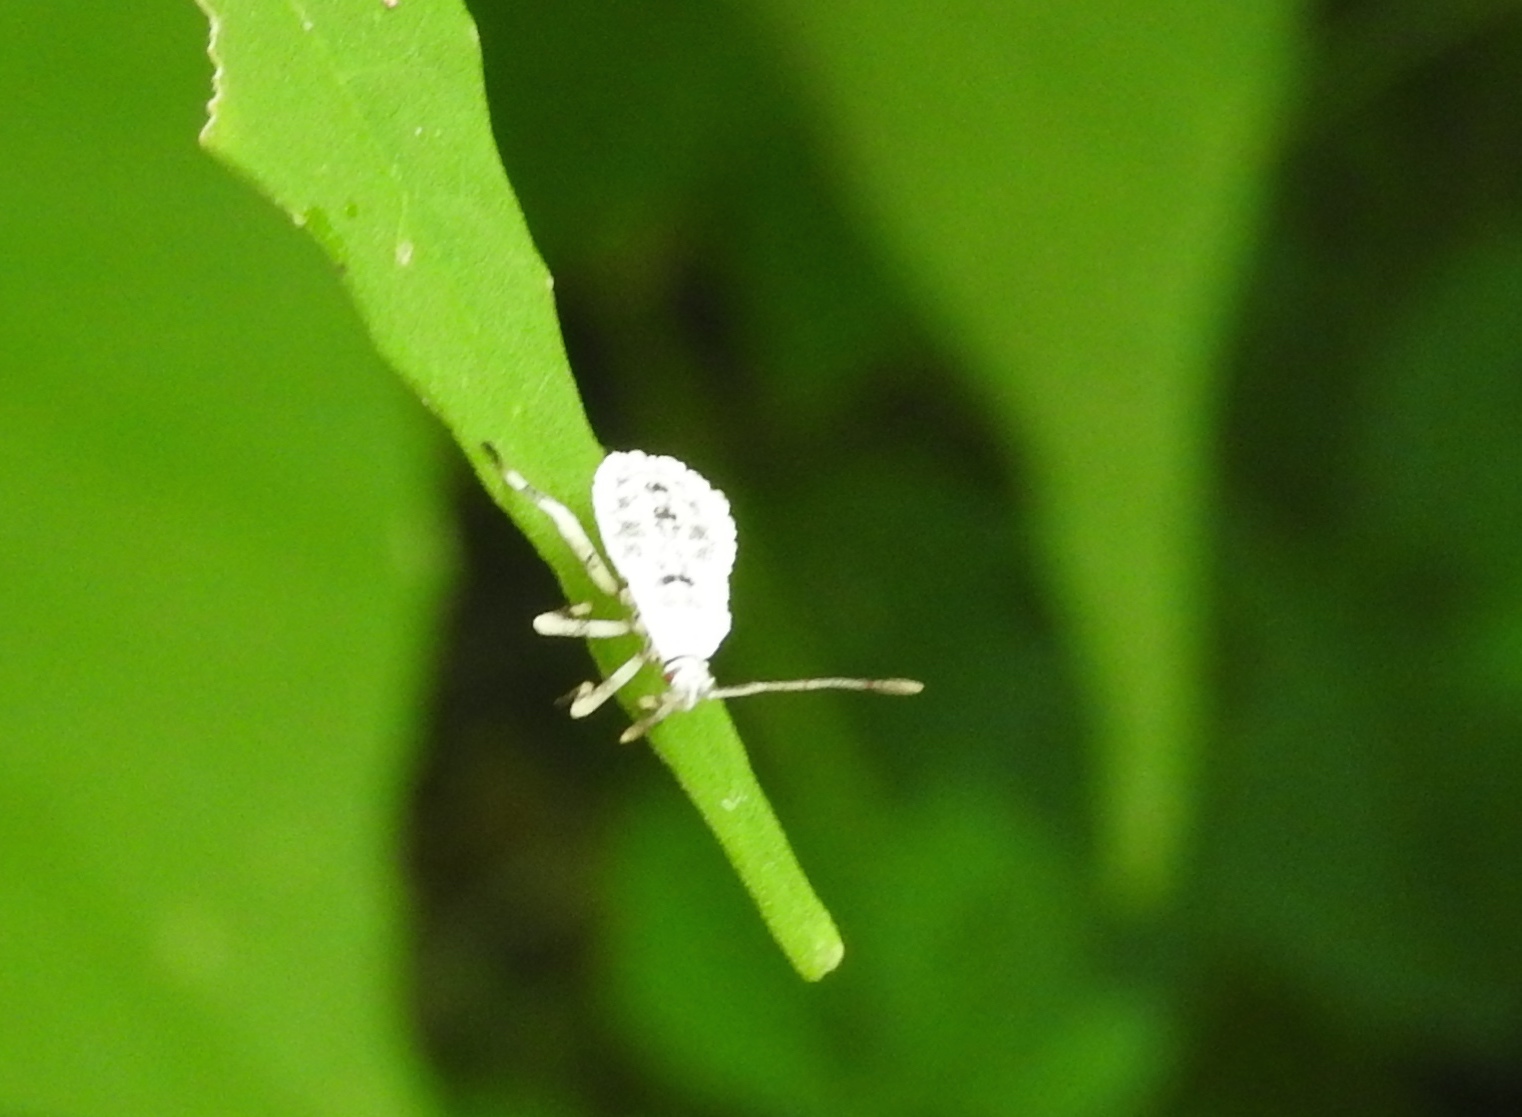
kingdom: Animalia
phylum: Arthropoda
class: Insecta
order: Hemiptera
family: Coreidae
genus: Anasa
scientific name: Anasa
